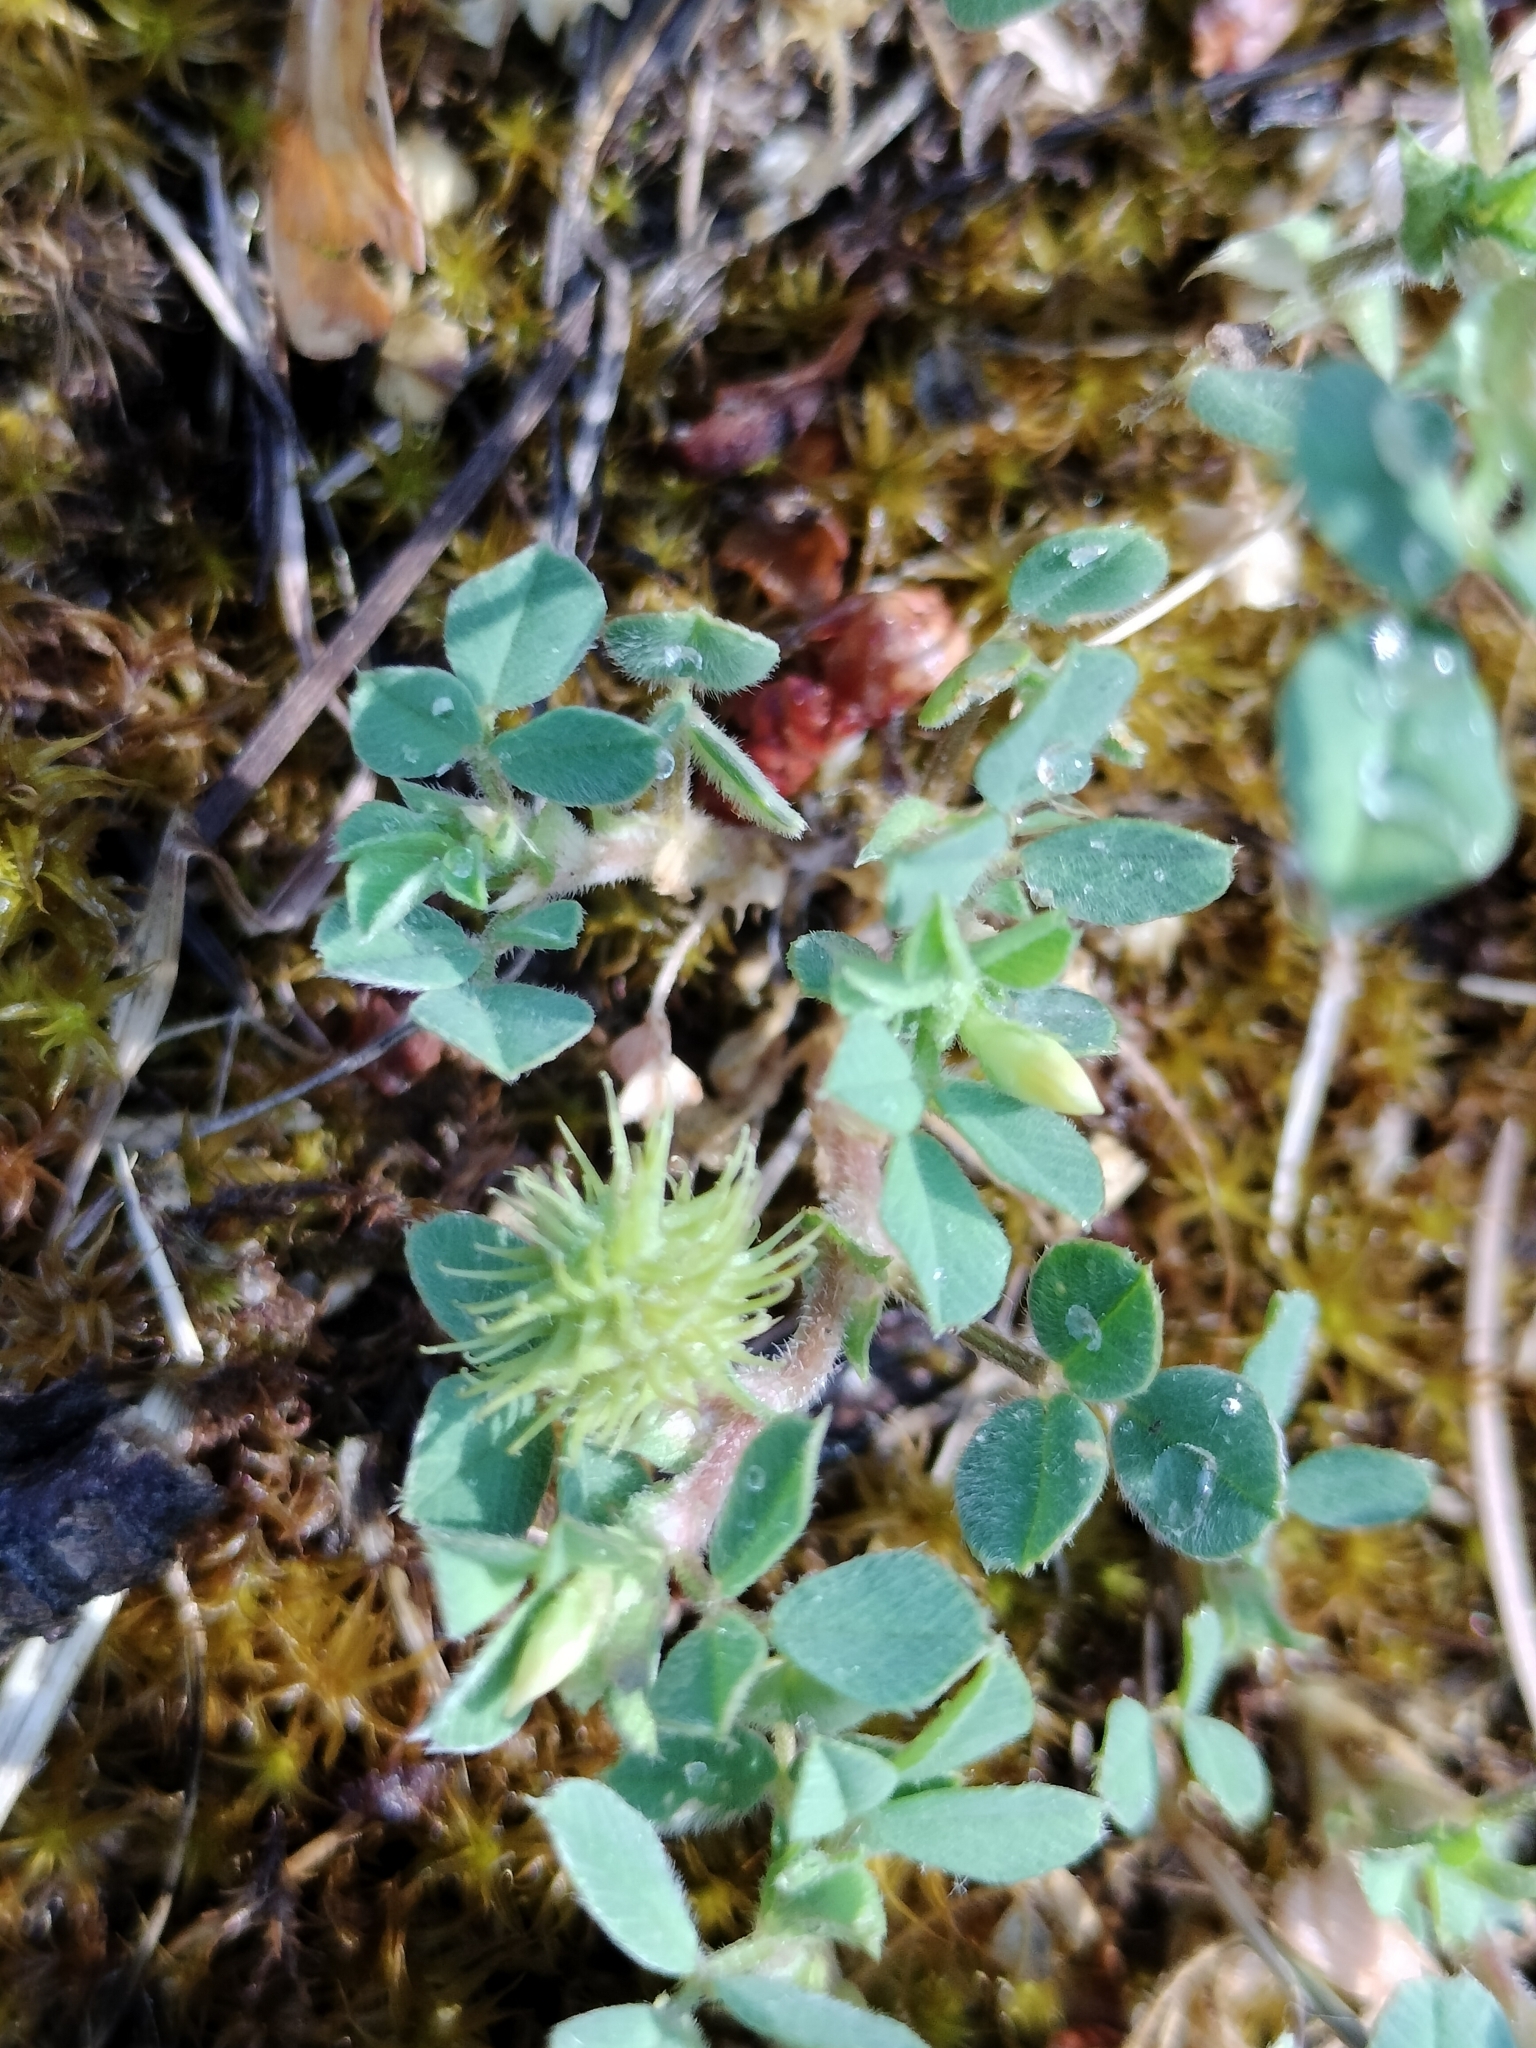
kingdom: Plantae
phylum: Tracheophyta
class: Magnoliopsida
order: Fabales
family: Fabaceae
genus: Medicago
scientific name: Medicago minima
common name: Little bur-clover
